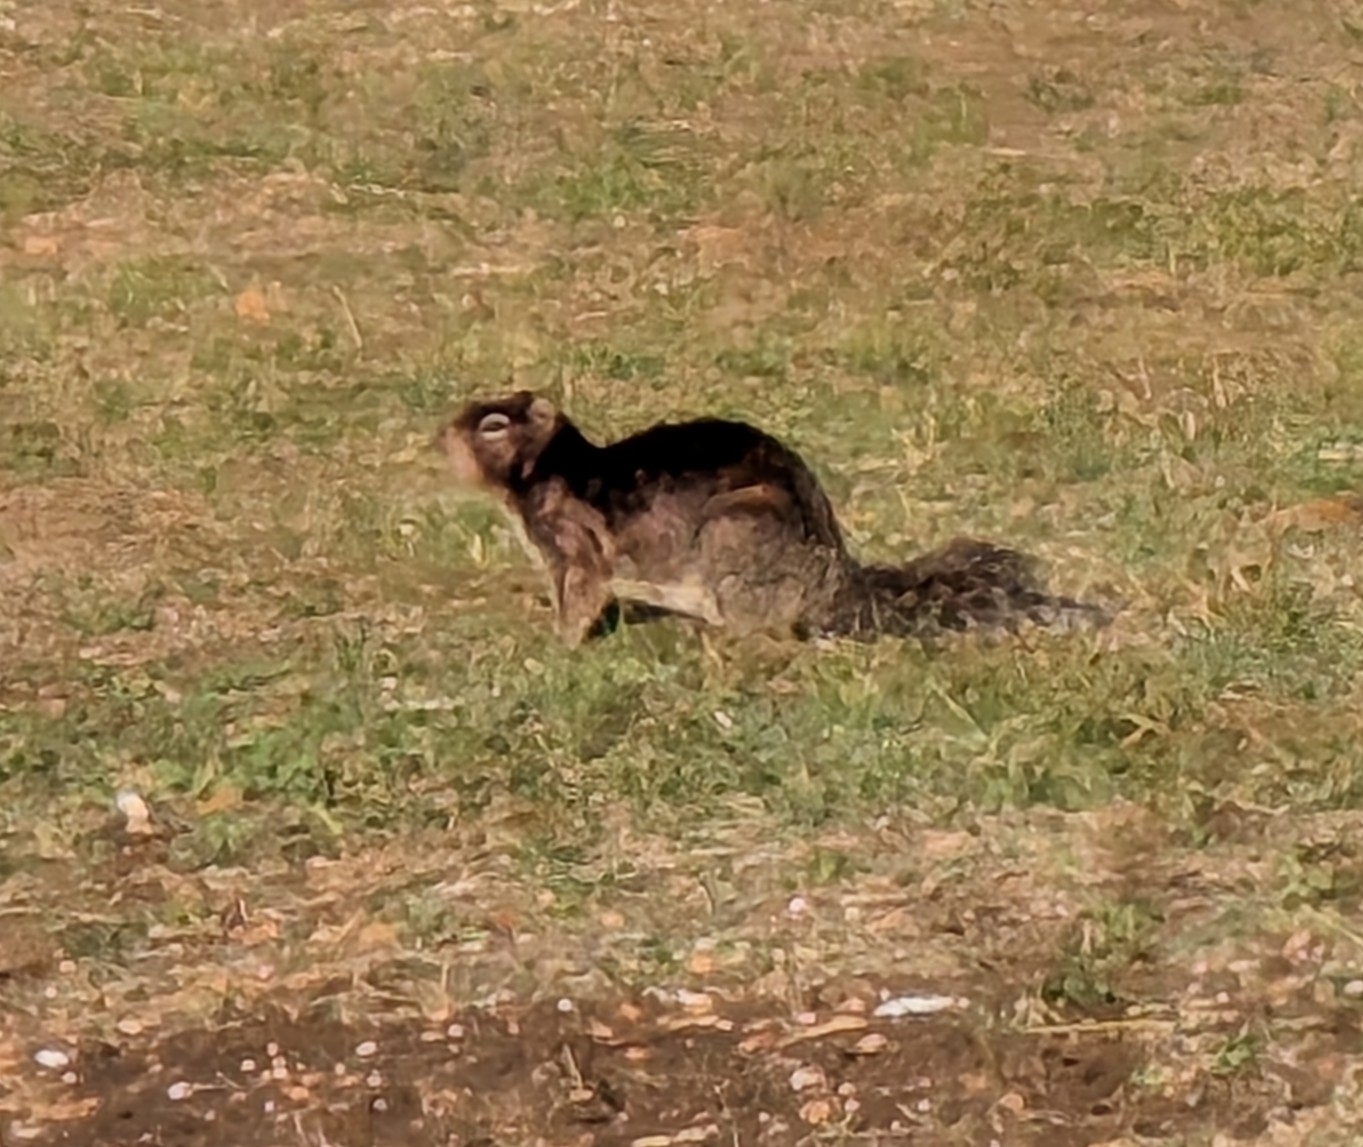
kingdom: Animalia
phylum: Chordata
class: Mammalia
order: Rodentia
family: Sciuridae
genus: Otospermophilus
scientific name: Otospermophilus variegatus
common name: Rock squirrel
